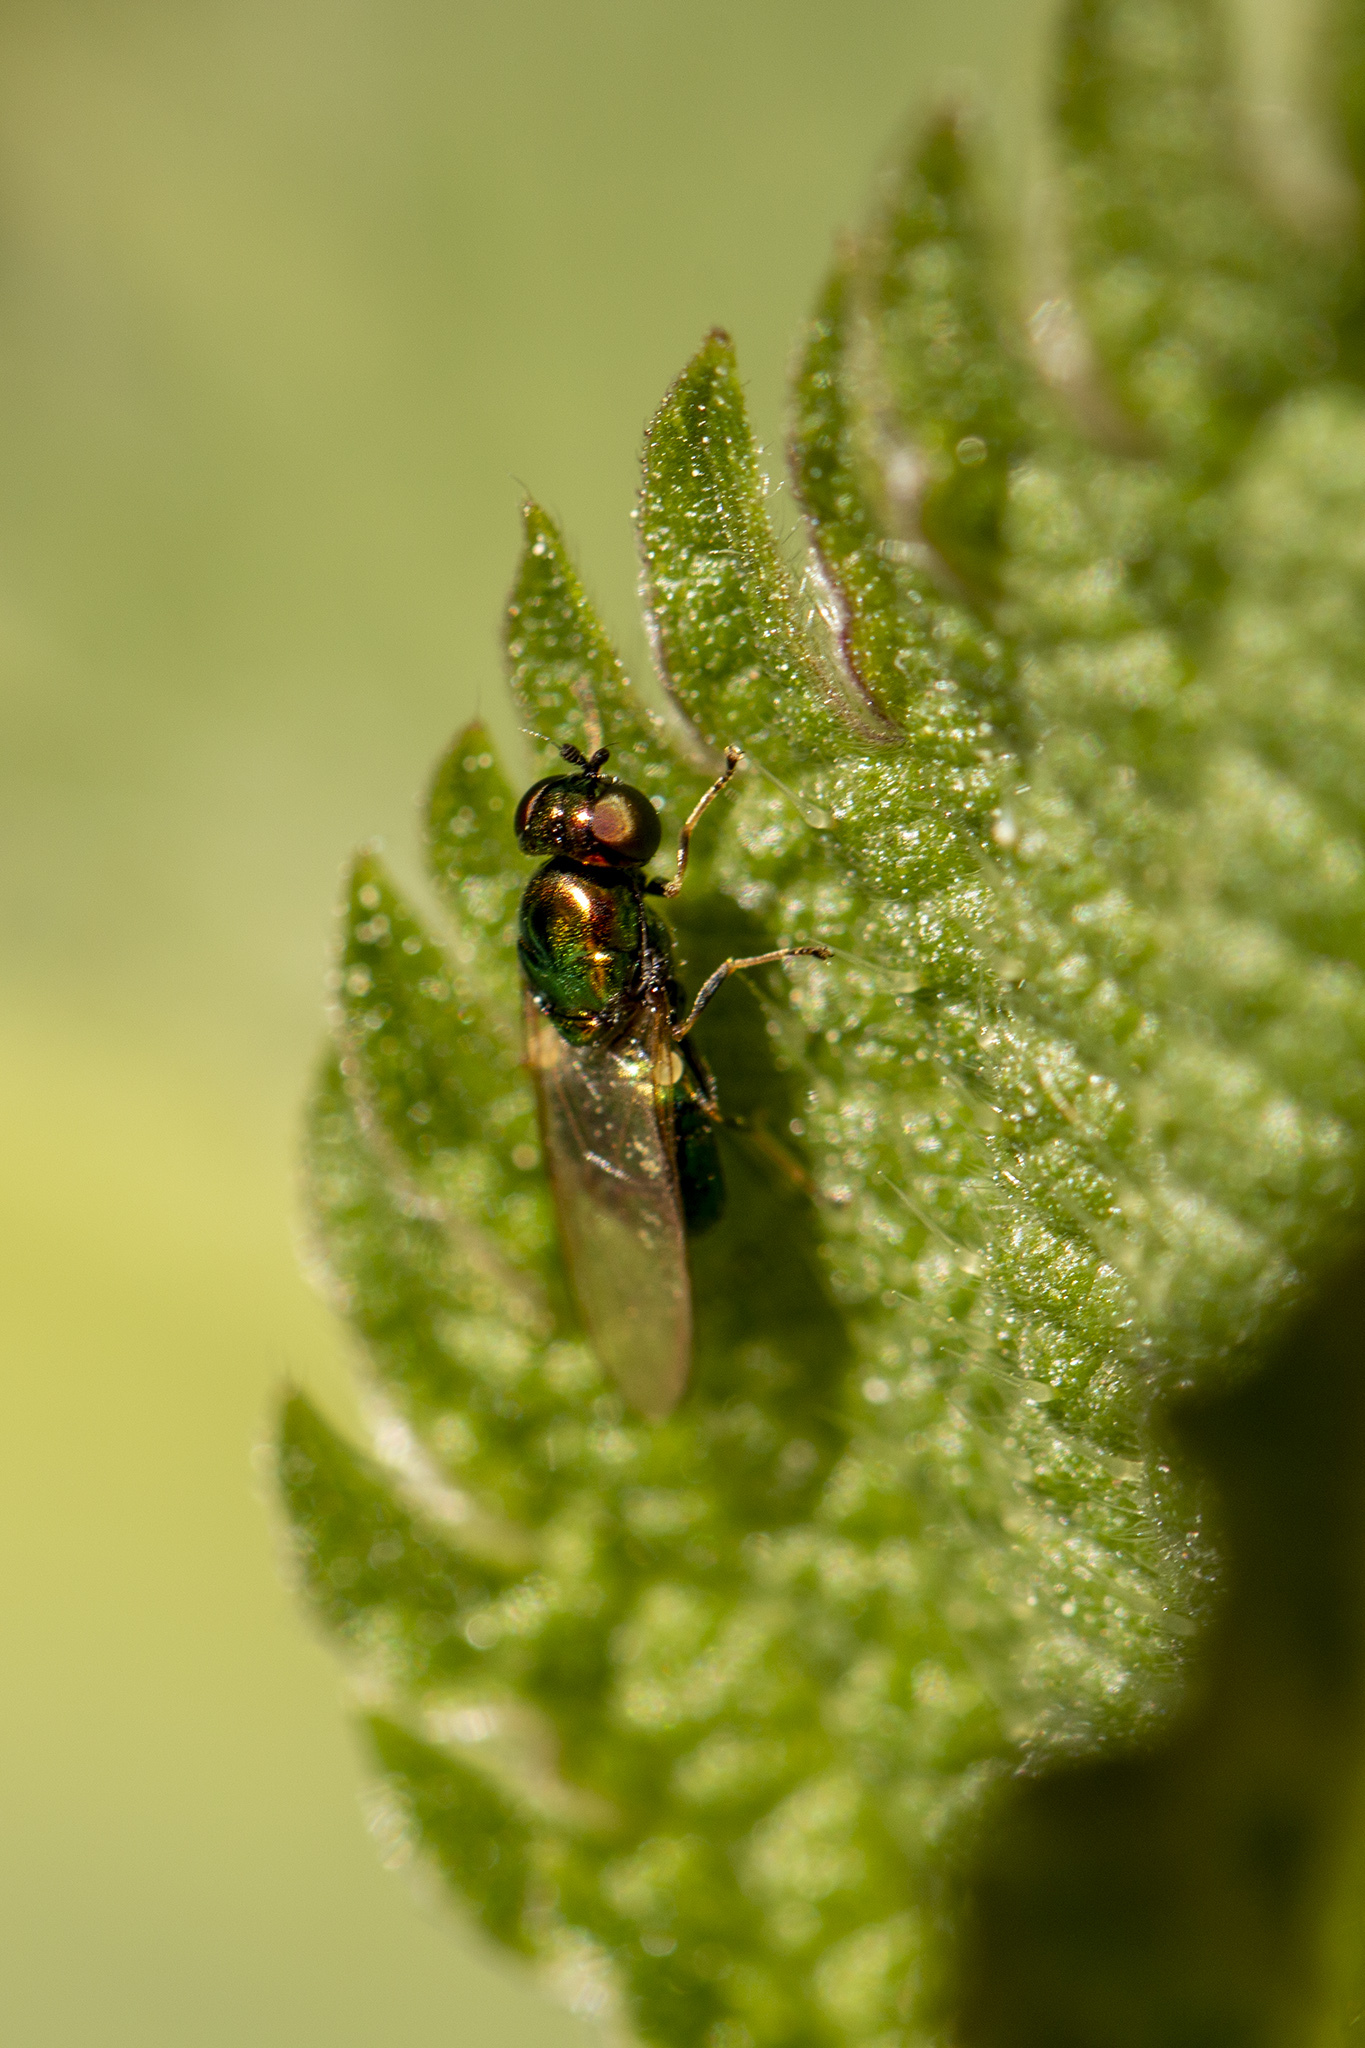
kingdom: Animalia
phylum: Arthropoda
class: Insecta
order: Diptera
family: Stratiomyidae
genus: Microchrysa
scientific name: Microchrysa polita
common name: Black-horned gem
